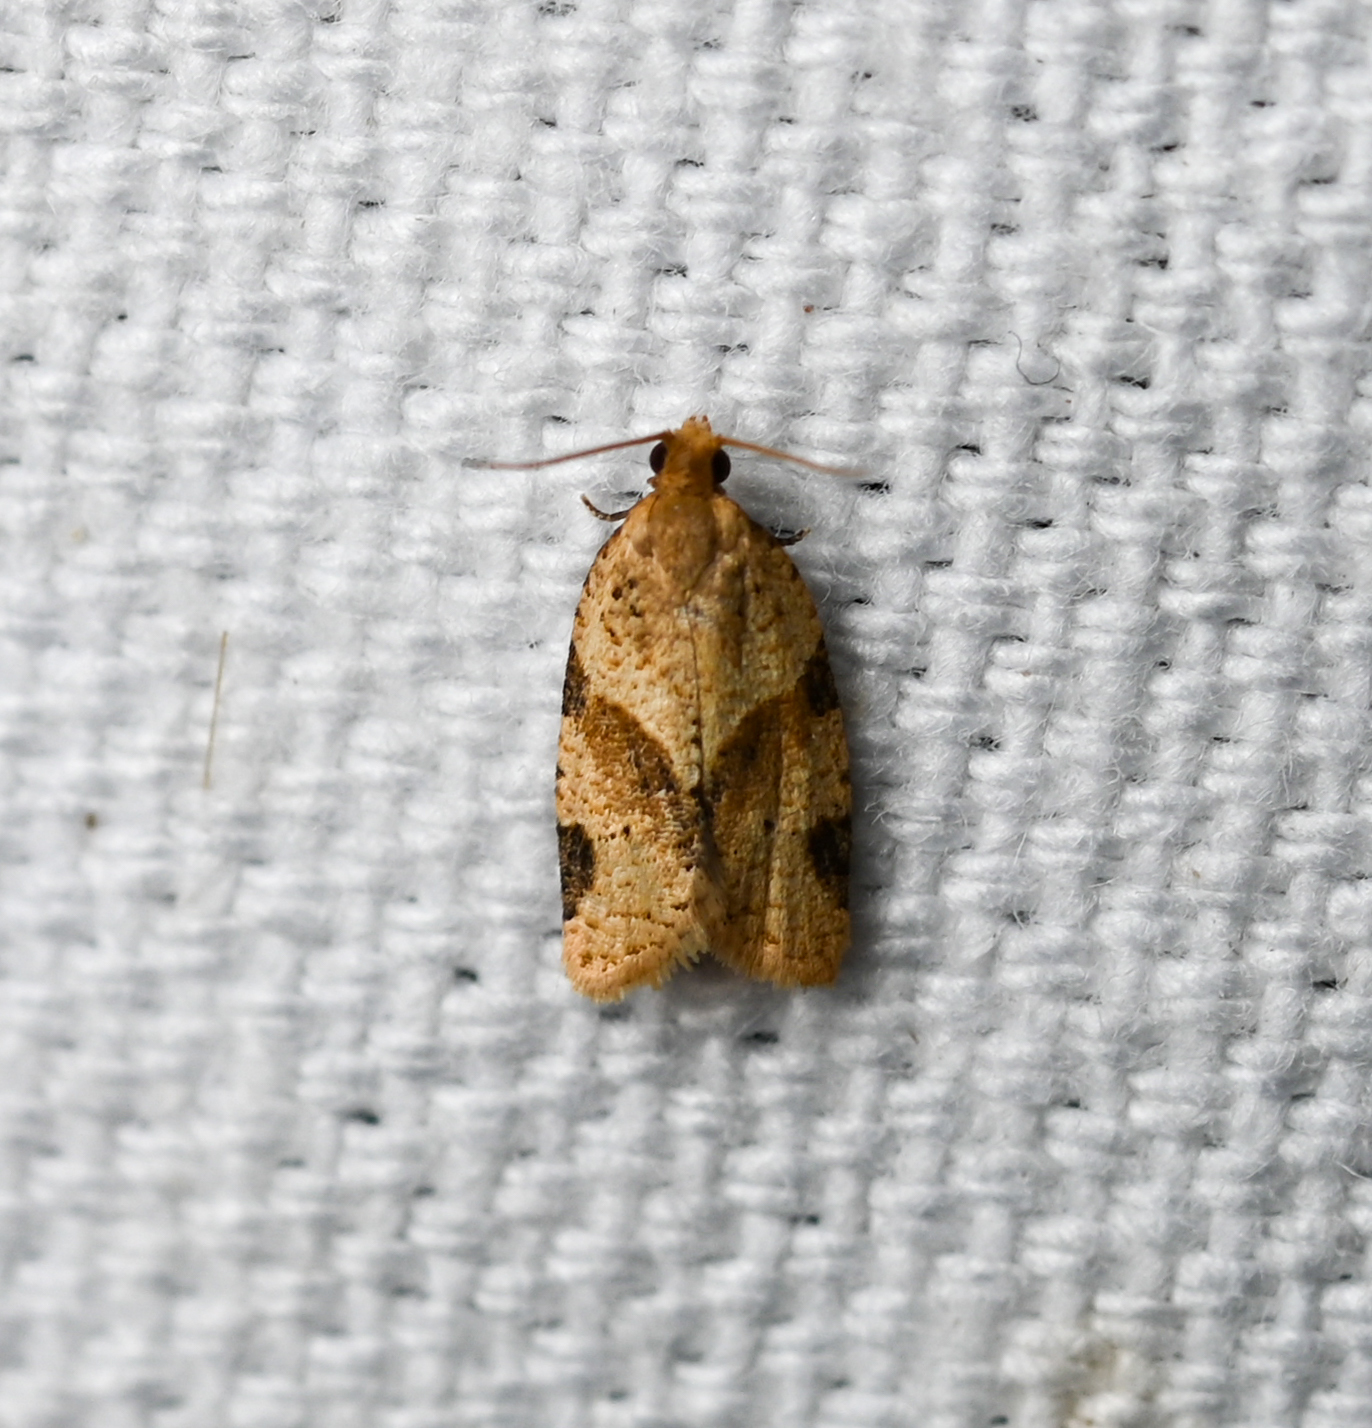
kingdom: Animalia
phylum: Arthropoda
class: Insecta
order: Lepidoptera
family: Tortricidae
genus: Clepsis
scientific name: Clepsis peritana
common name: Garden tortrix
